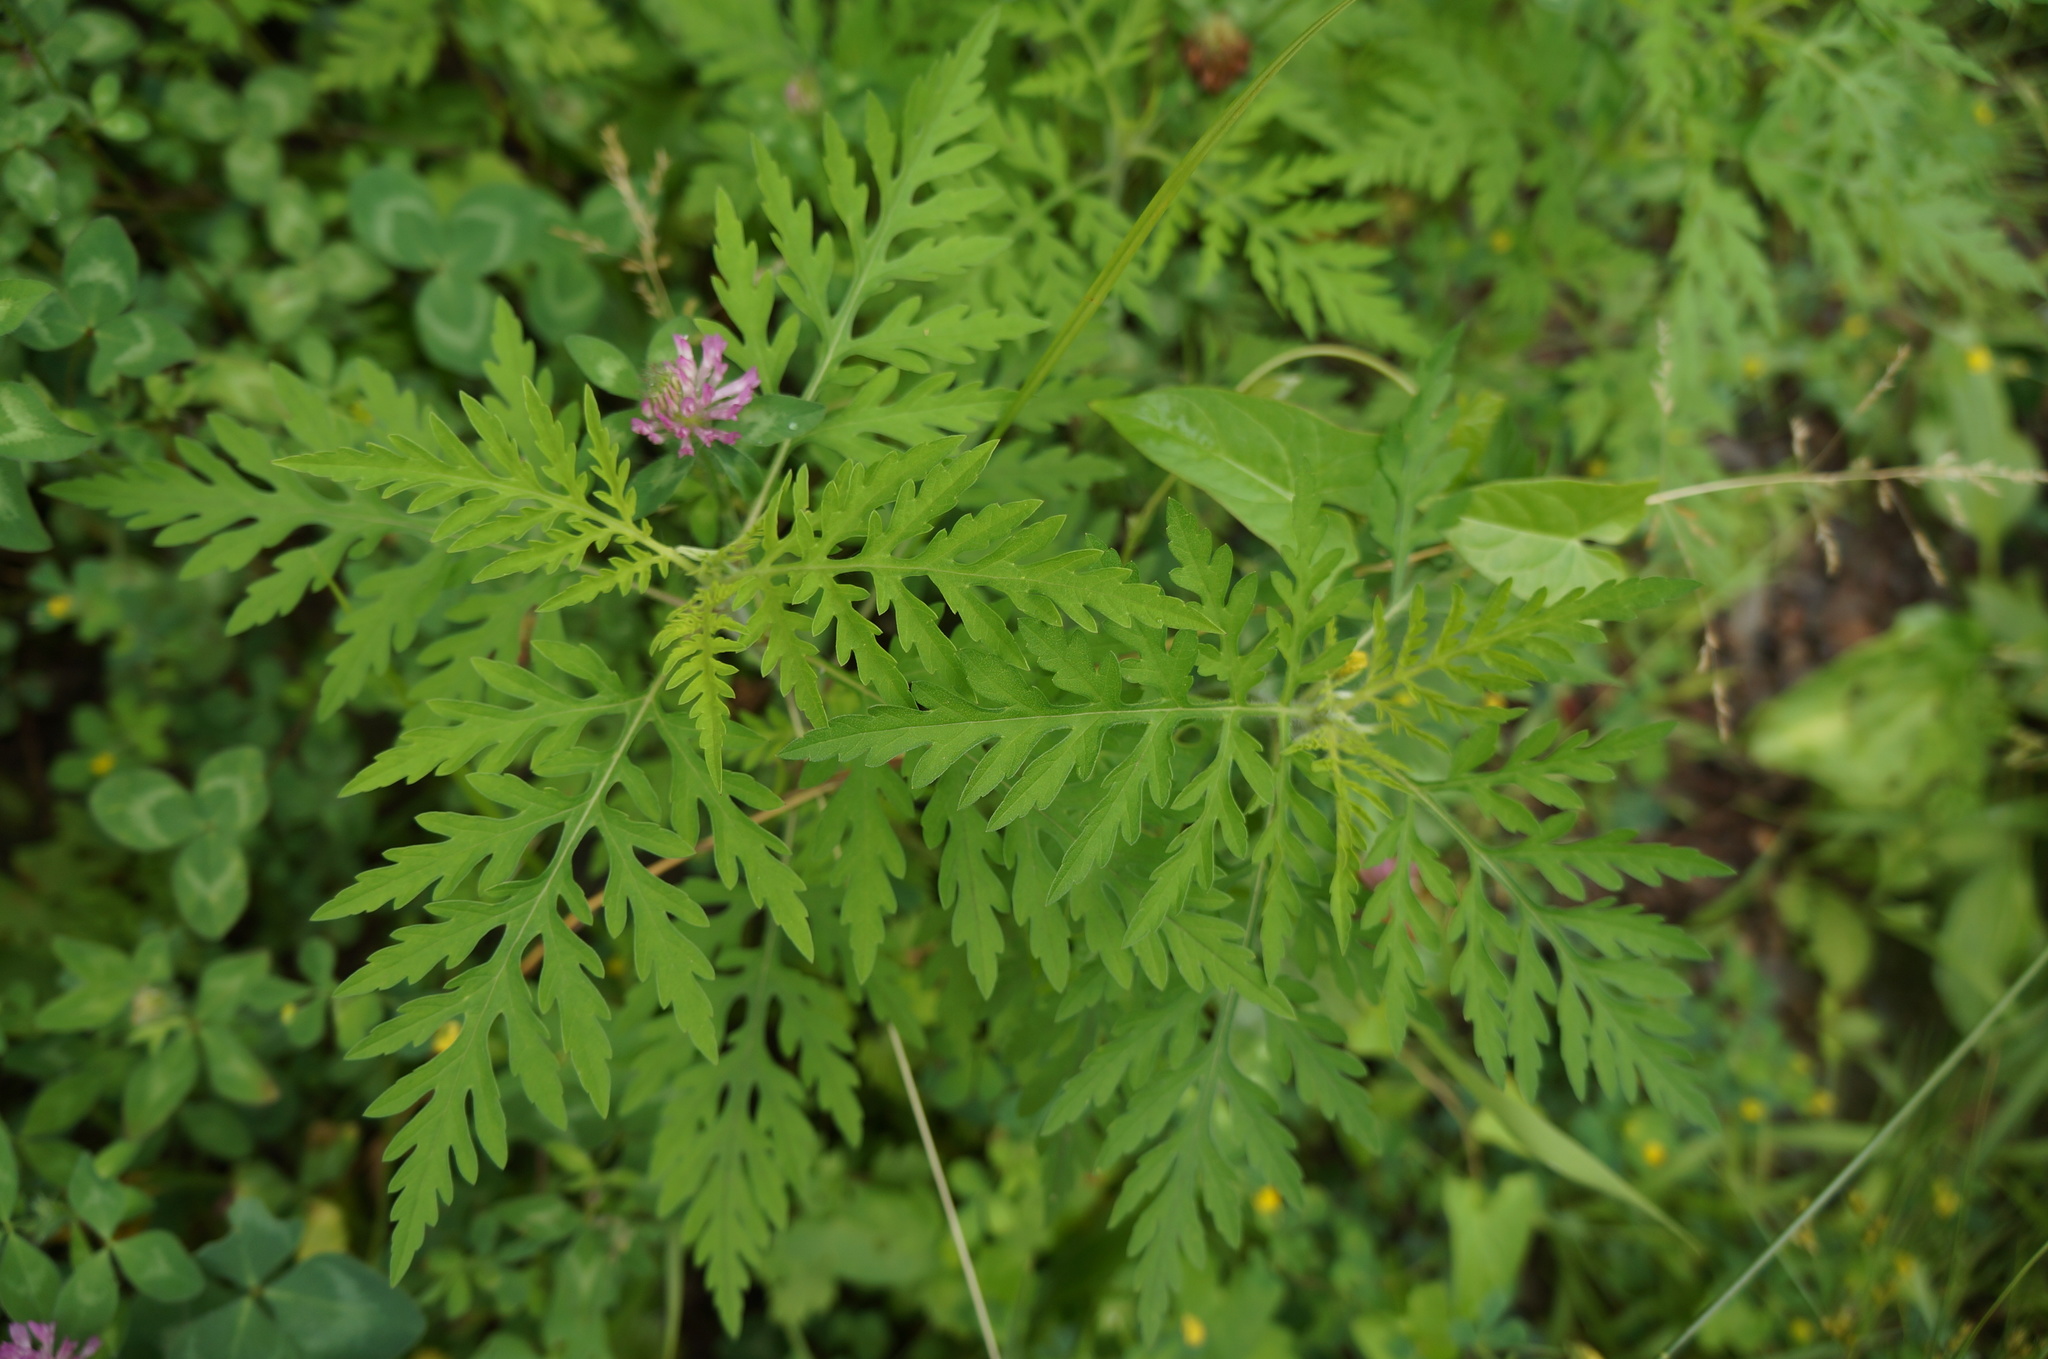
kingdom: Plantae
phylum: Tracheophyta
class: Magnoliopsida
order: Asterales
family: Asteraceae
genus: Ambrosia
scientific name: Ambrosia artemisiifolia
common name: Annual ragweed
